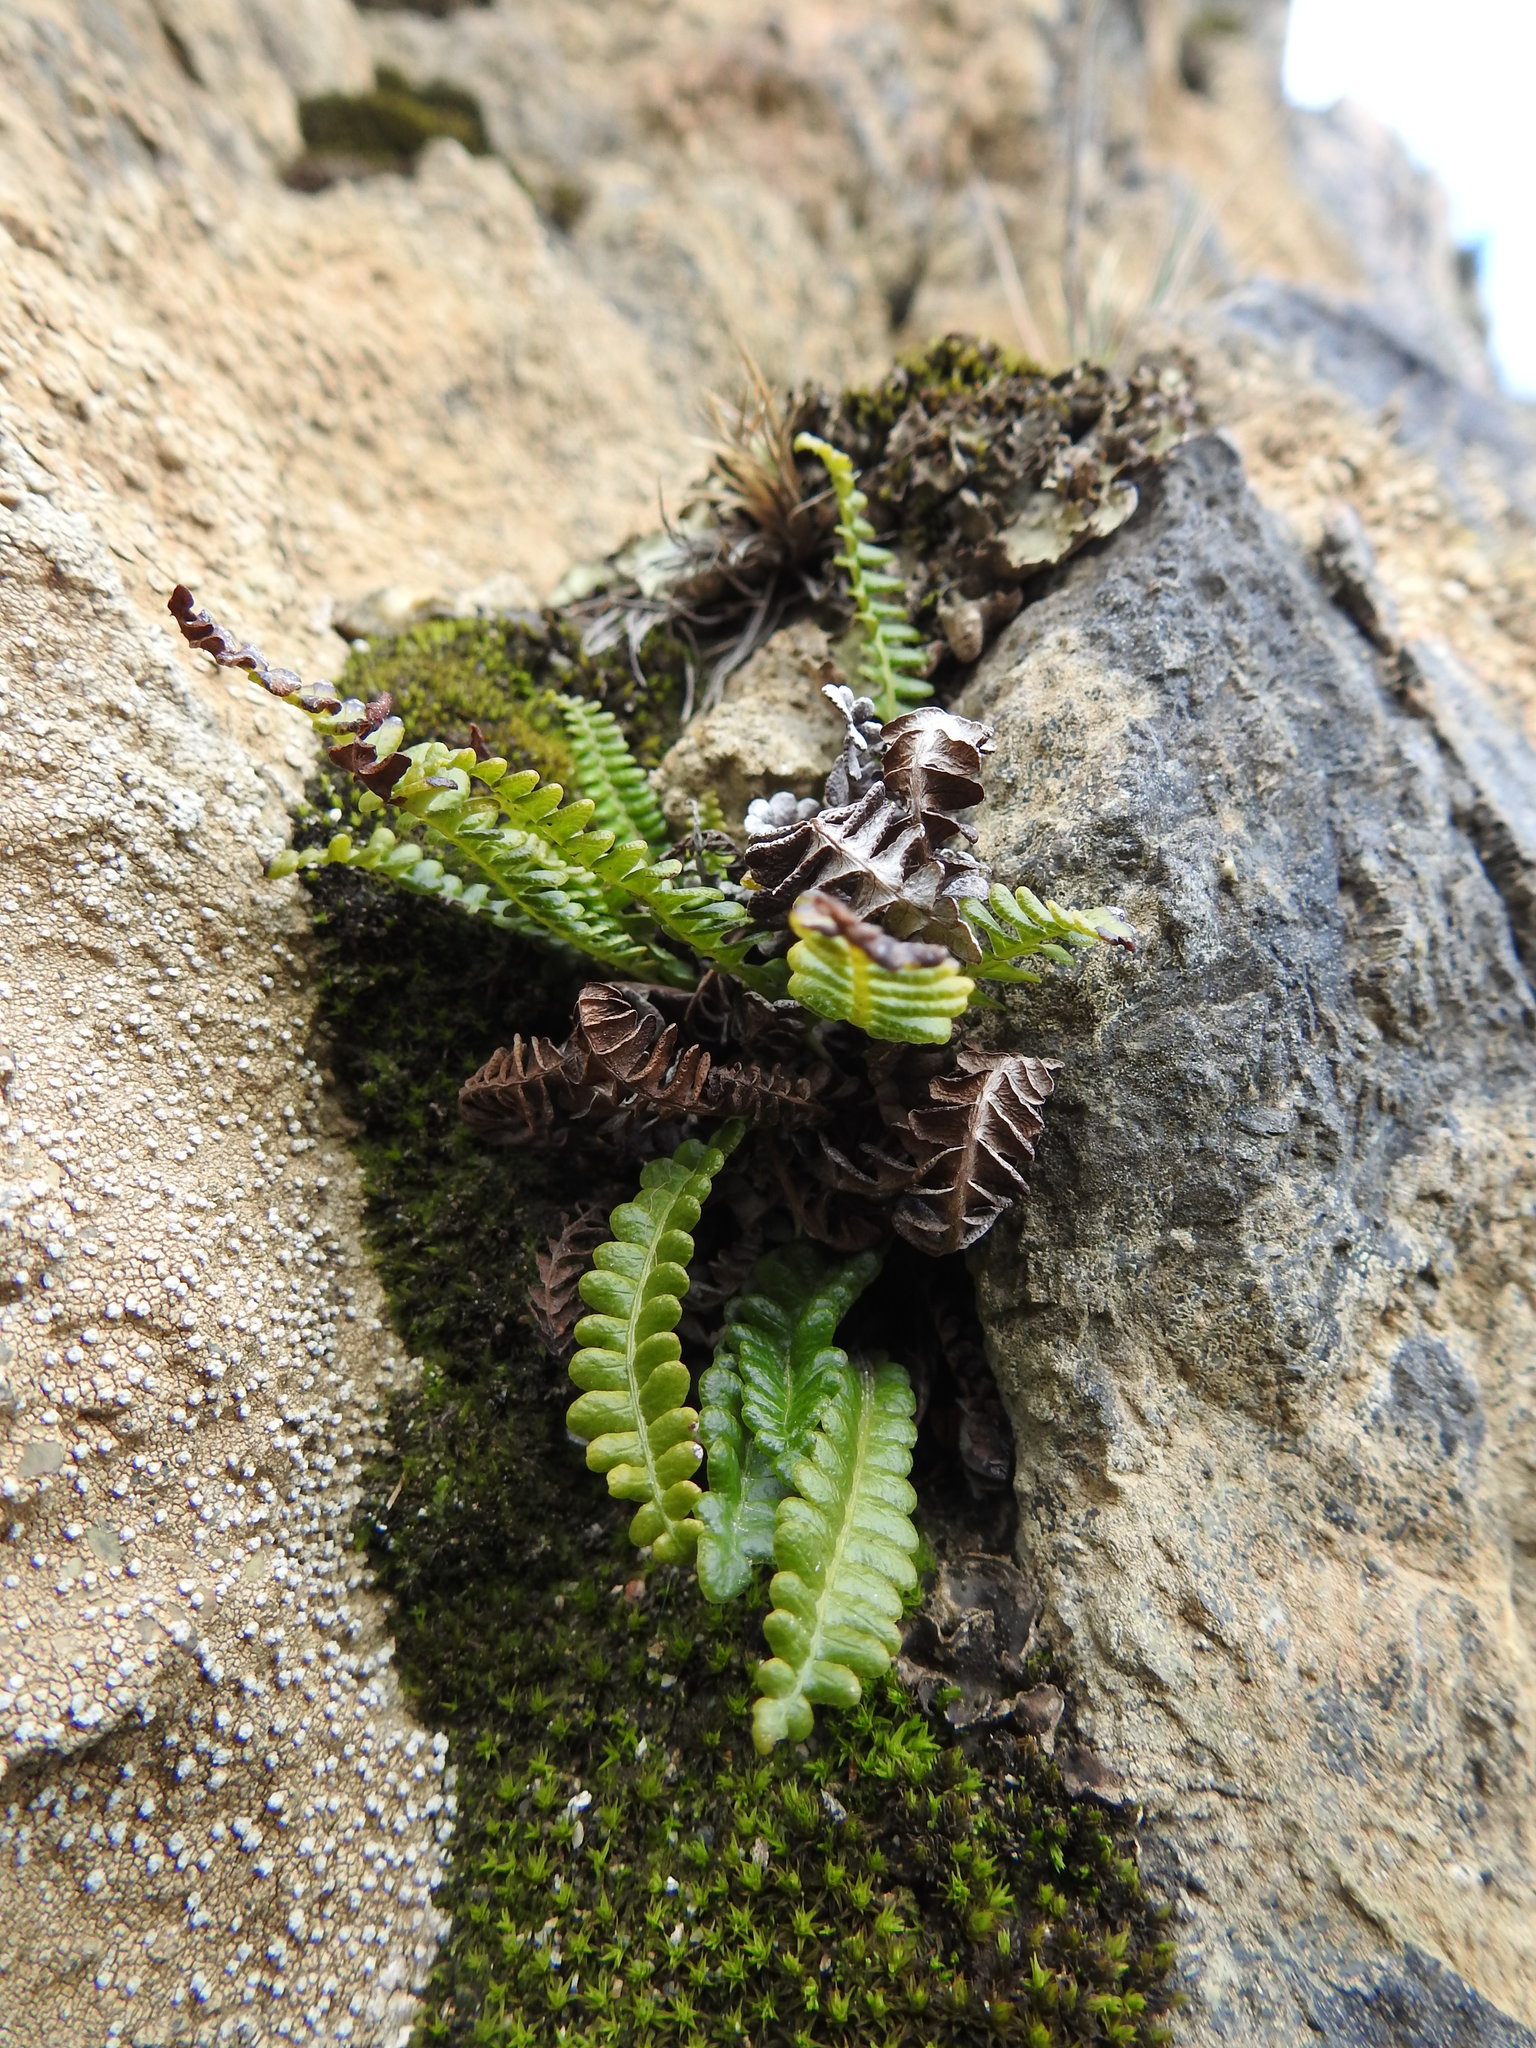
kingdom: Plantae
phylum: Tracheophyta
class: Polypodiopsida
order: Polypodiales
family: Blechnaceae
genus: Austroblechnum
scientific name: Austroblechnum penna-marina
